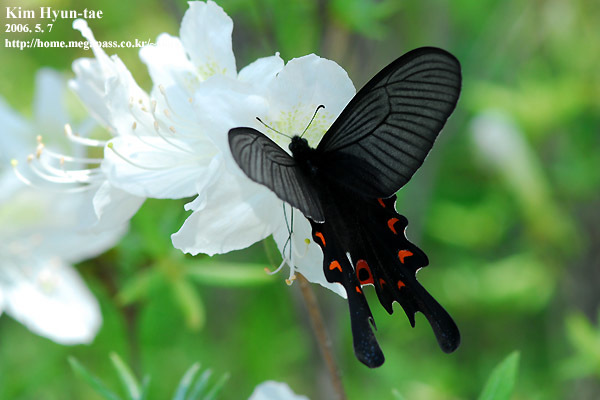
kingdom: Animalia
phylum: Arthropoda
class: Insecta
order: Lepidoptera
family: Papilionidae
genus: Papilio
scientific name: Papilio macilentus
